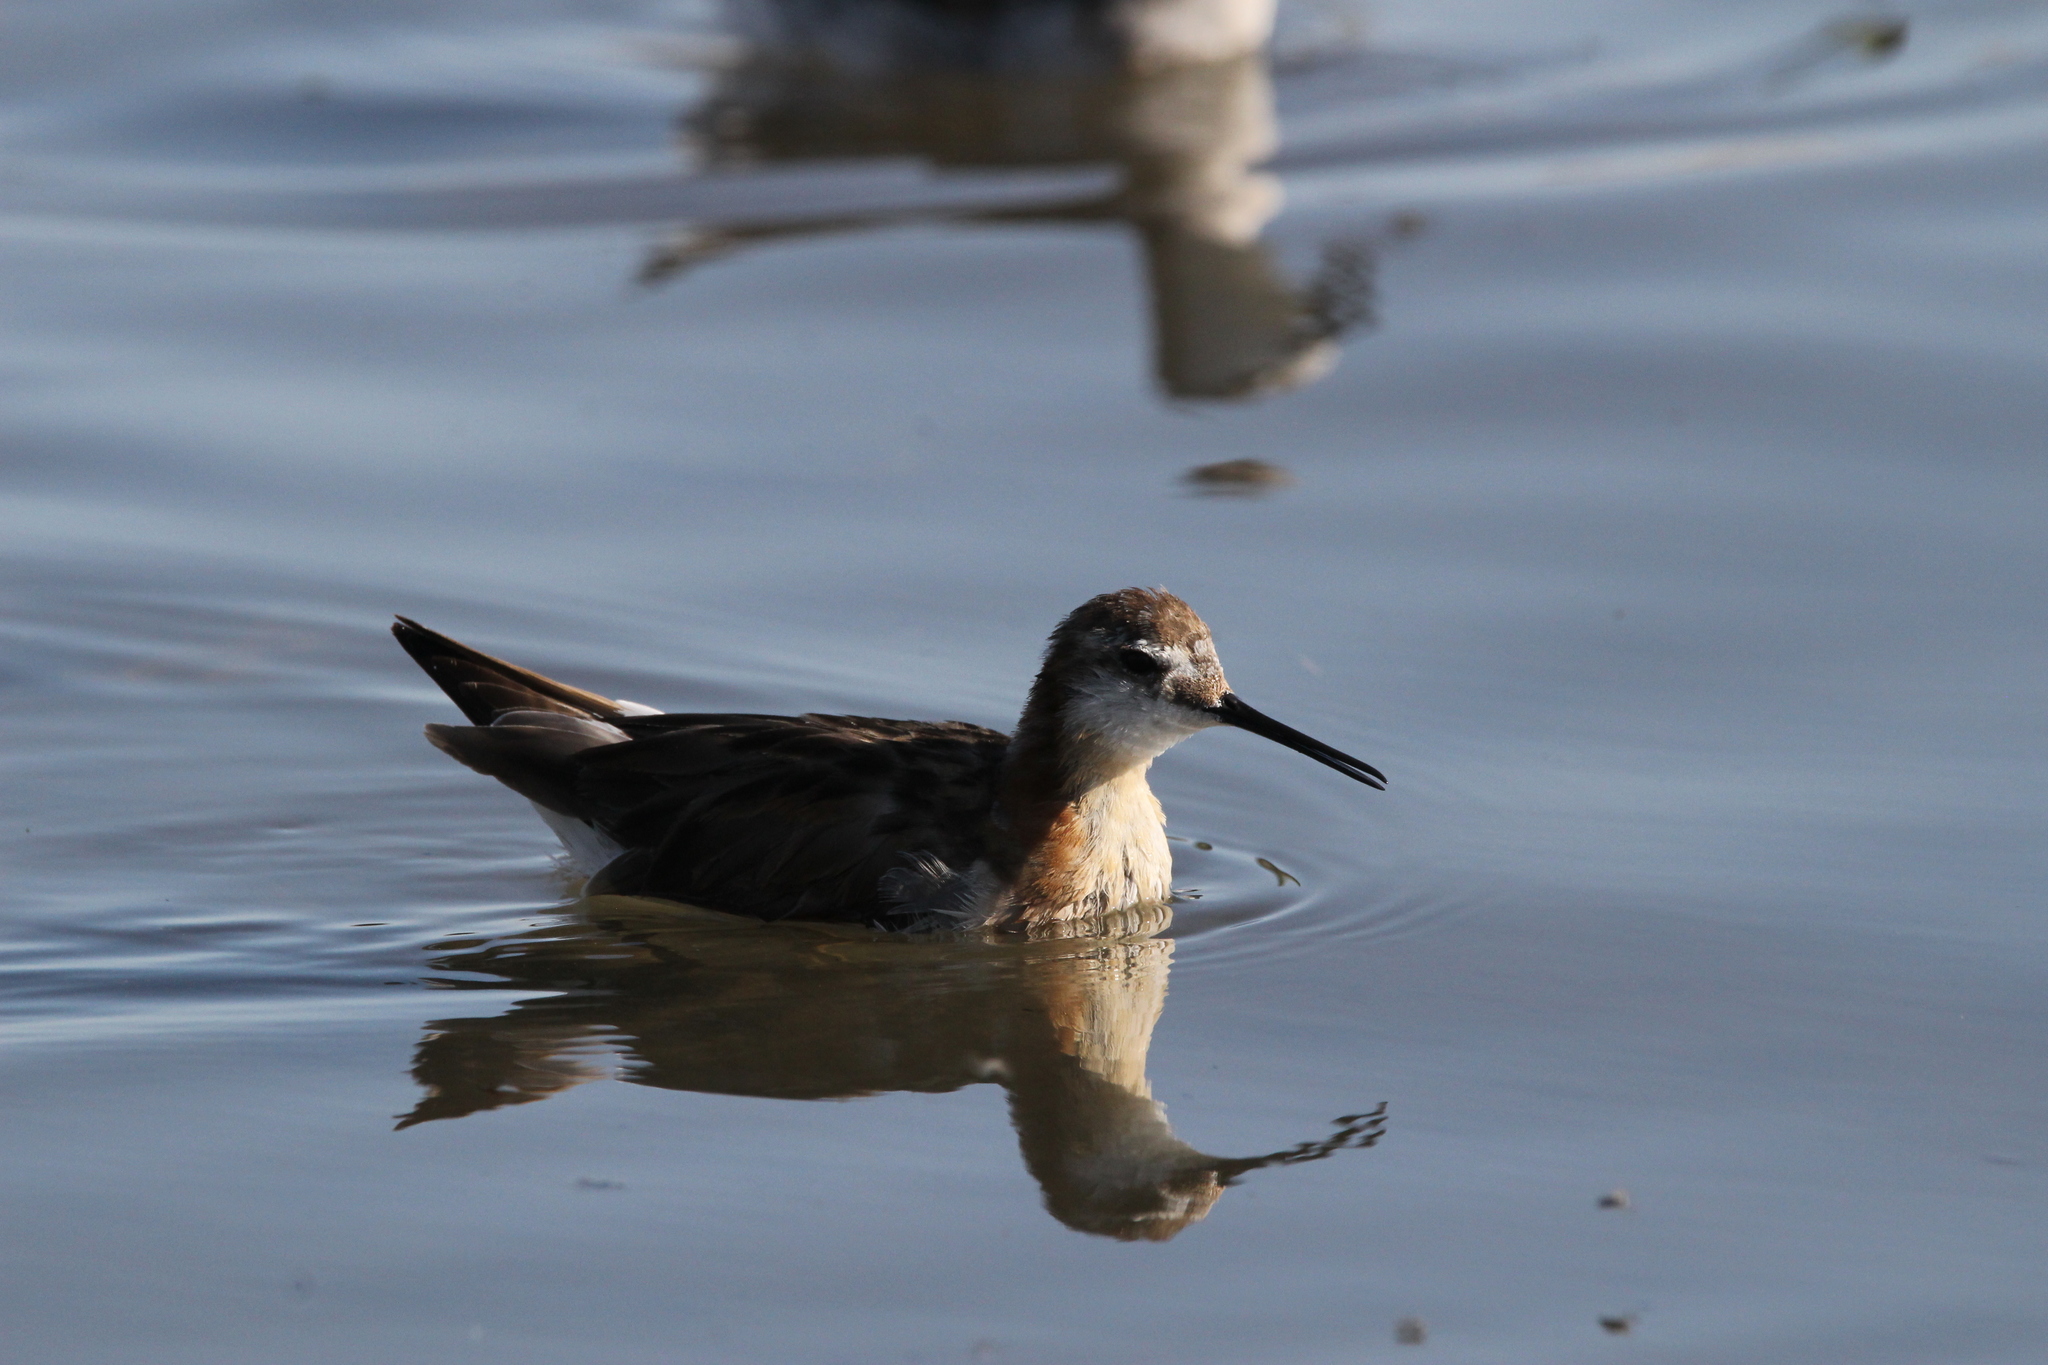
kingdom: Animalia
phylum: Chordata
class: Aves
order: Charadriiformes
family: Scolopacidae
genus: Phalaropus
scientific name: Phalaropus tricolor
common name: Wilson's phalarope
